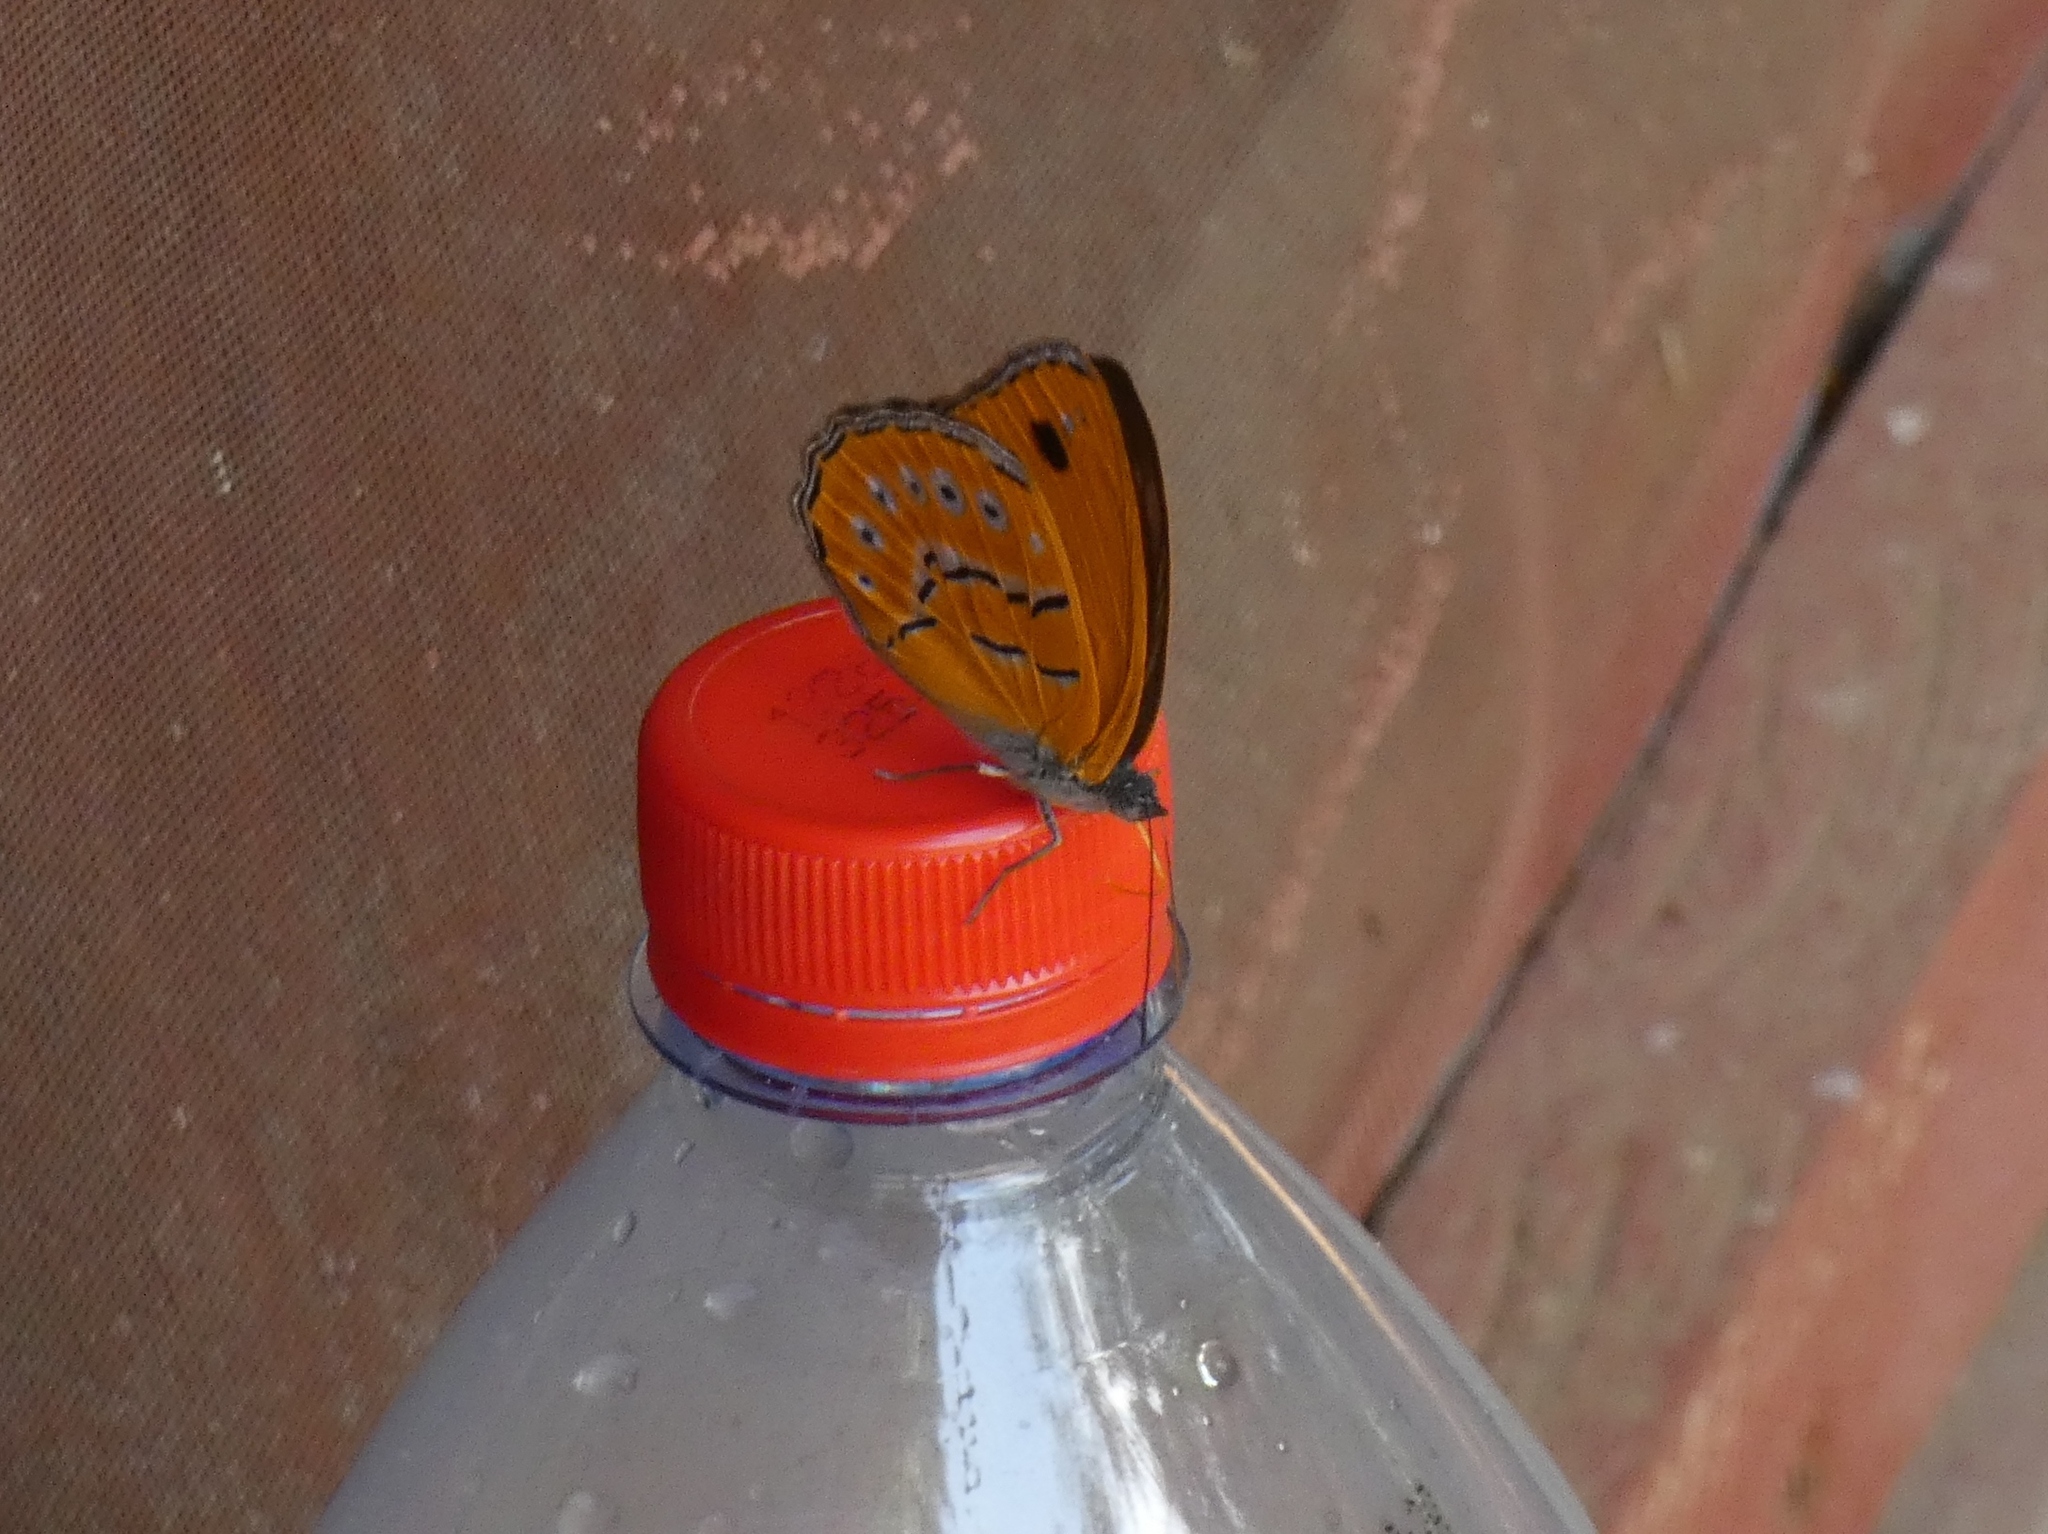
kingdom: Animalia
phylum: Arthropoda
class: Insecta
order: Lepidoptera
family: Nymphalidae
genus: Sevenia
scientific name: Sevenia
